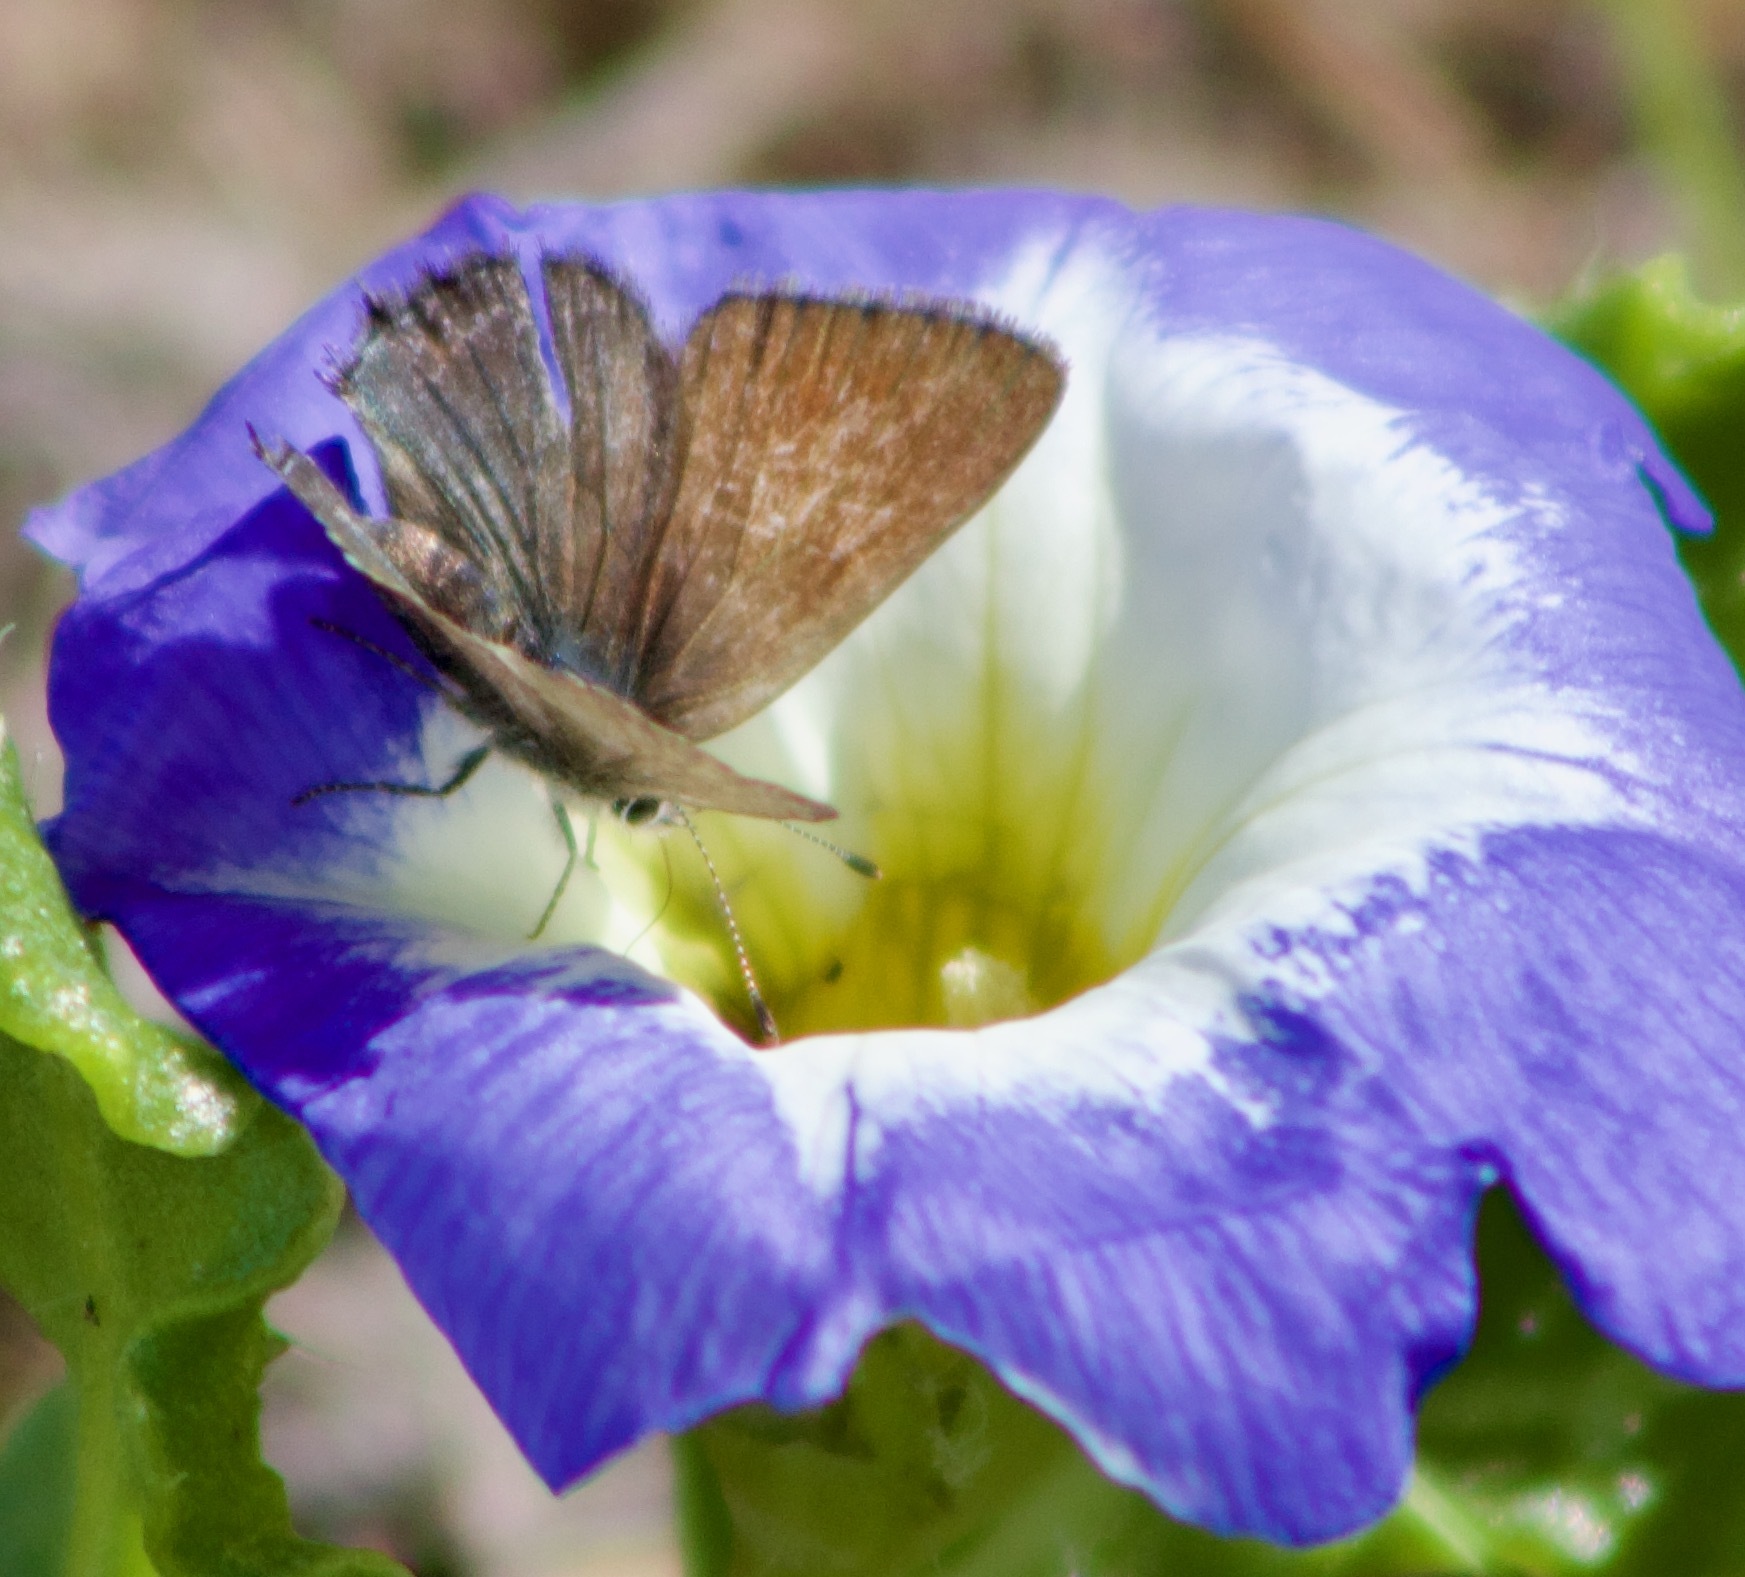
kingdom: Animalia
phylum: Arthropoda
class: Insecta
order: Lepidoptera
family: Lycaenidae
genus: Strymon
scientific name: Strymon eurytulus
